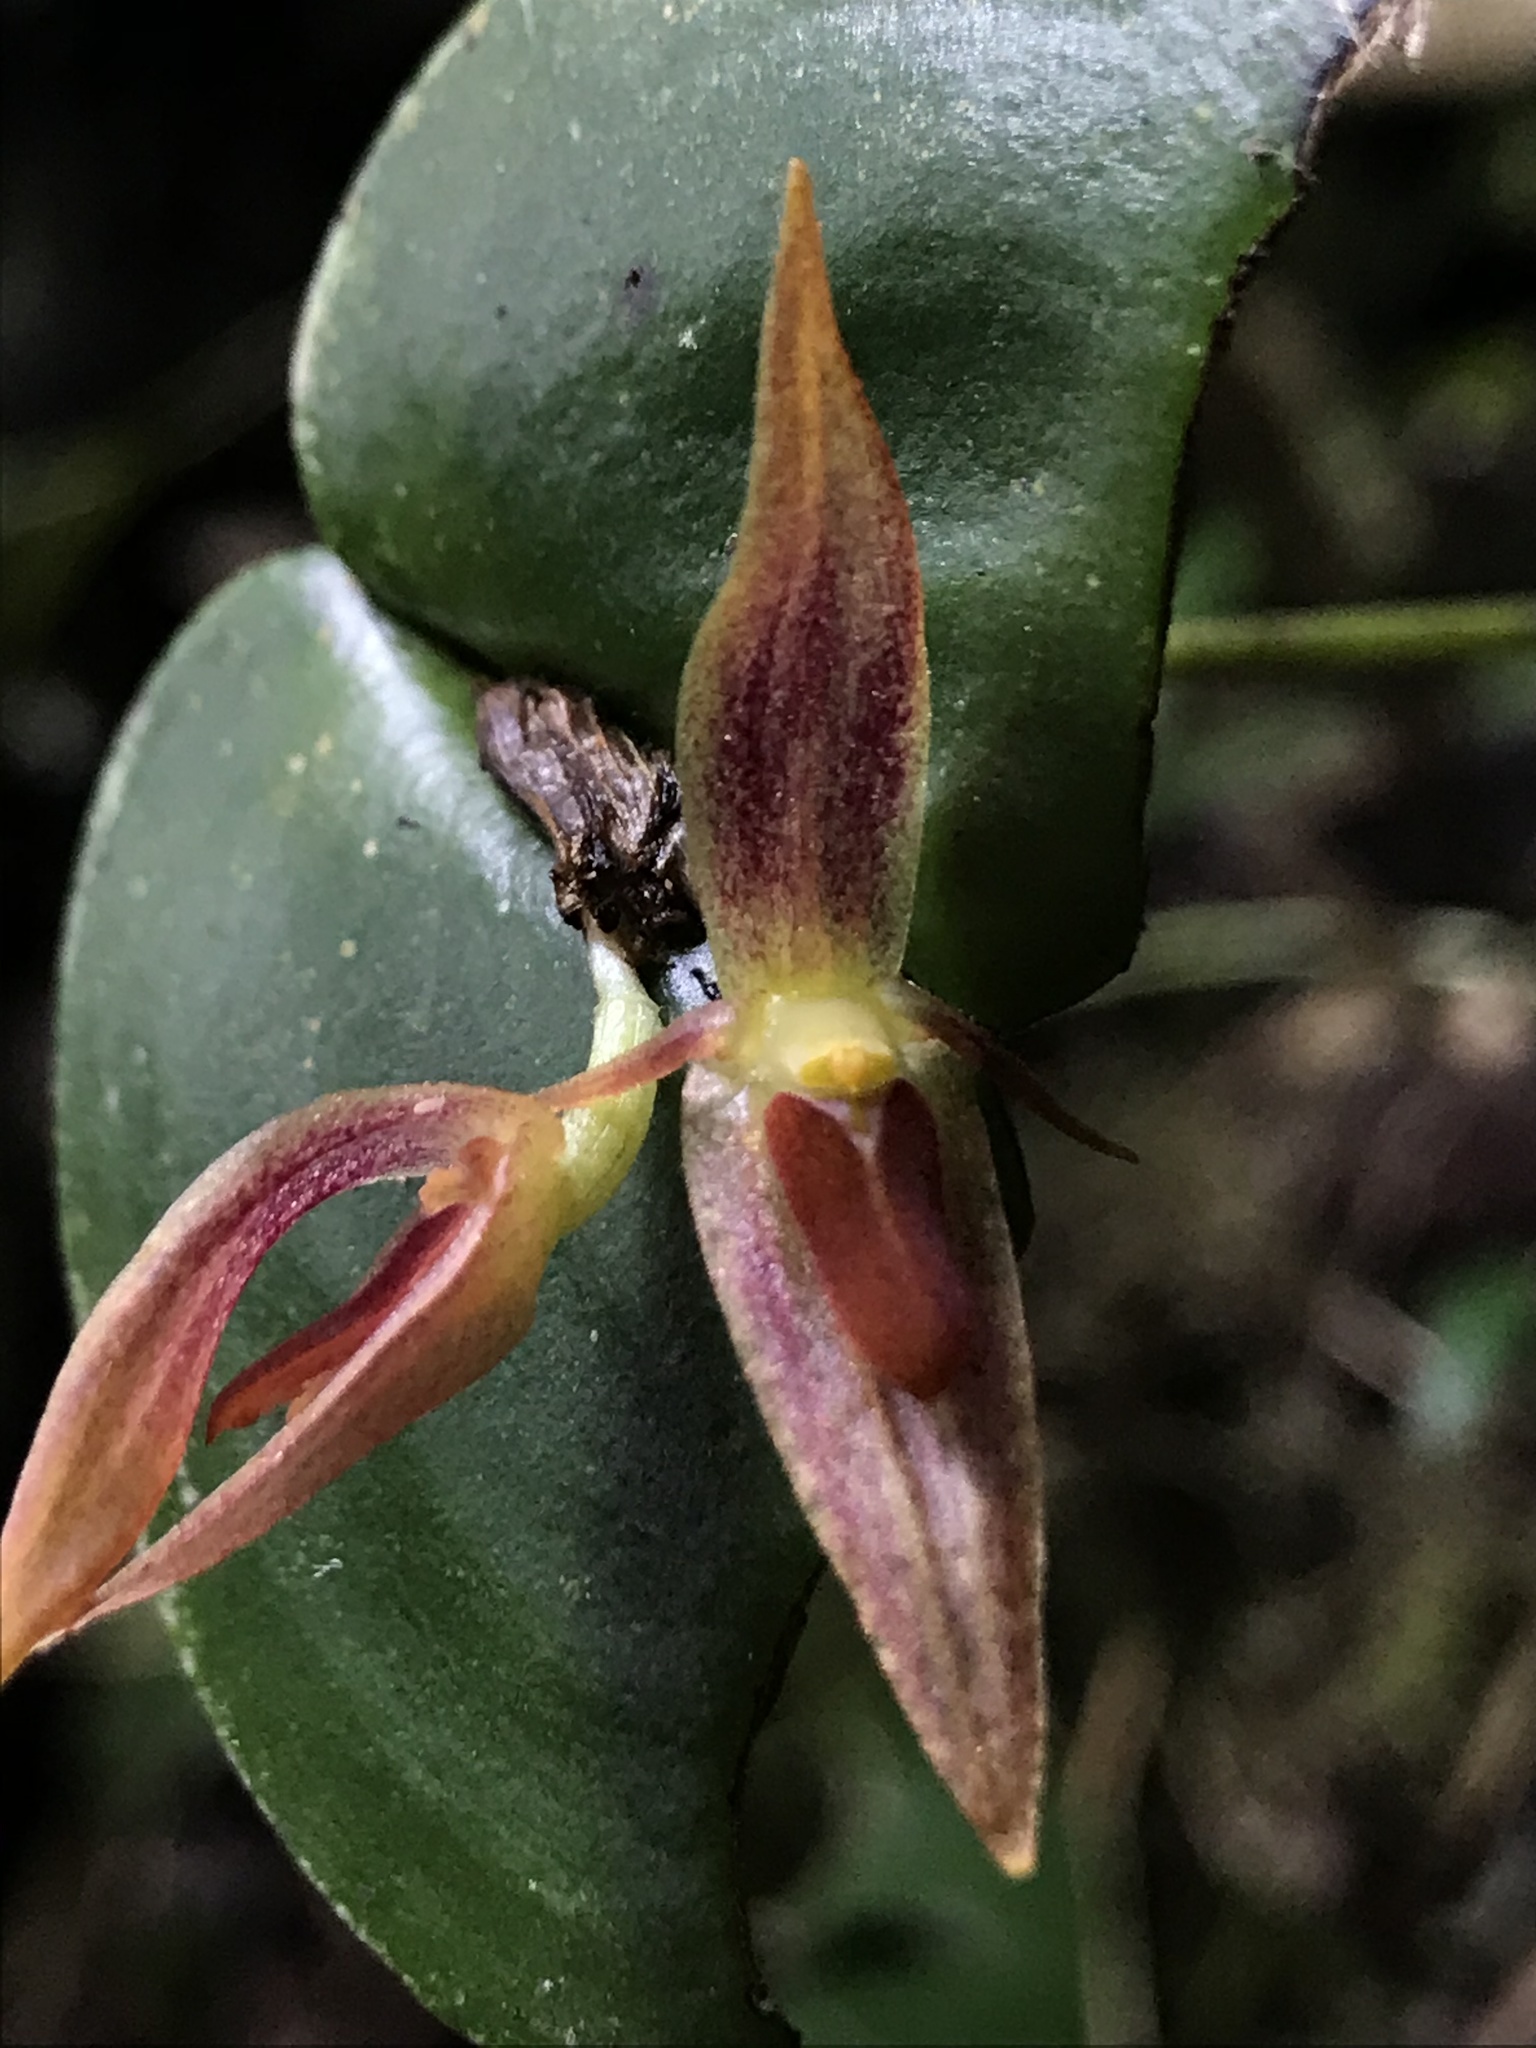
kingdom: Plantae
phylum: Tracheophyta
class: Liliopsida
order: Asparagales
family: Orchidaceae
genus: Pleurothallis
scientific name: Pleurothallis coriacardia
